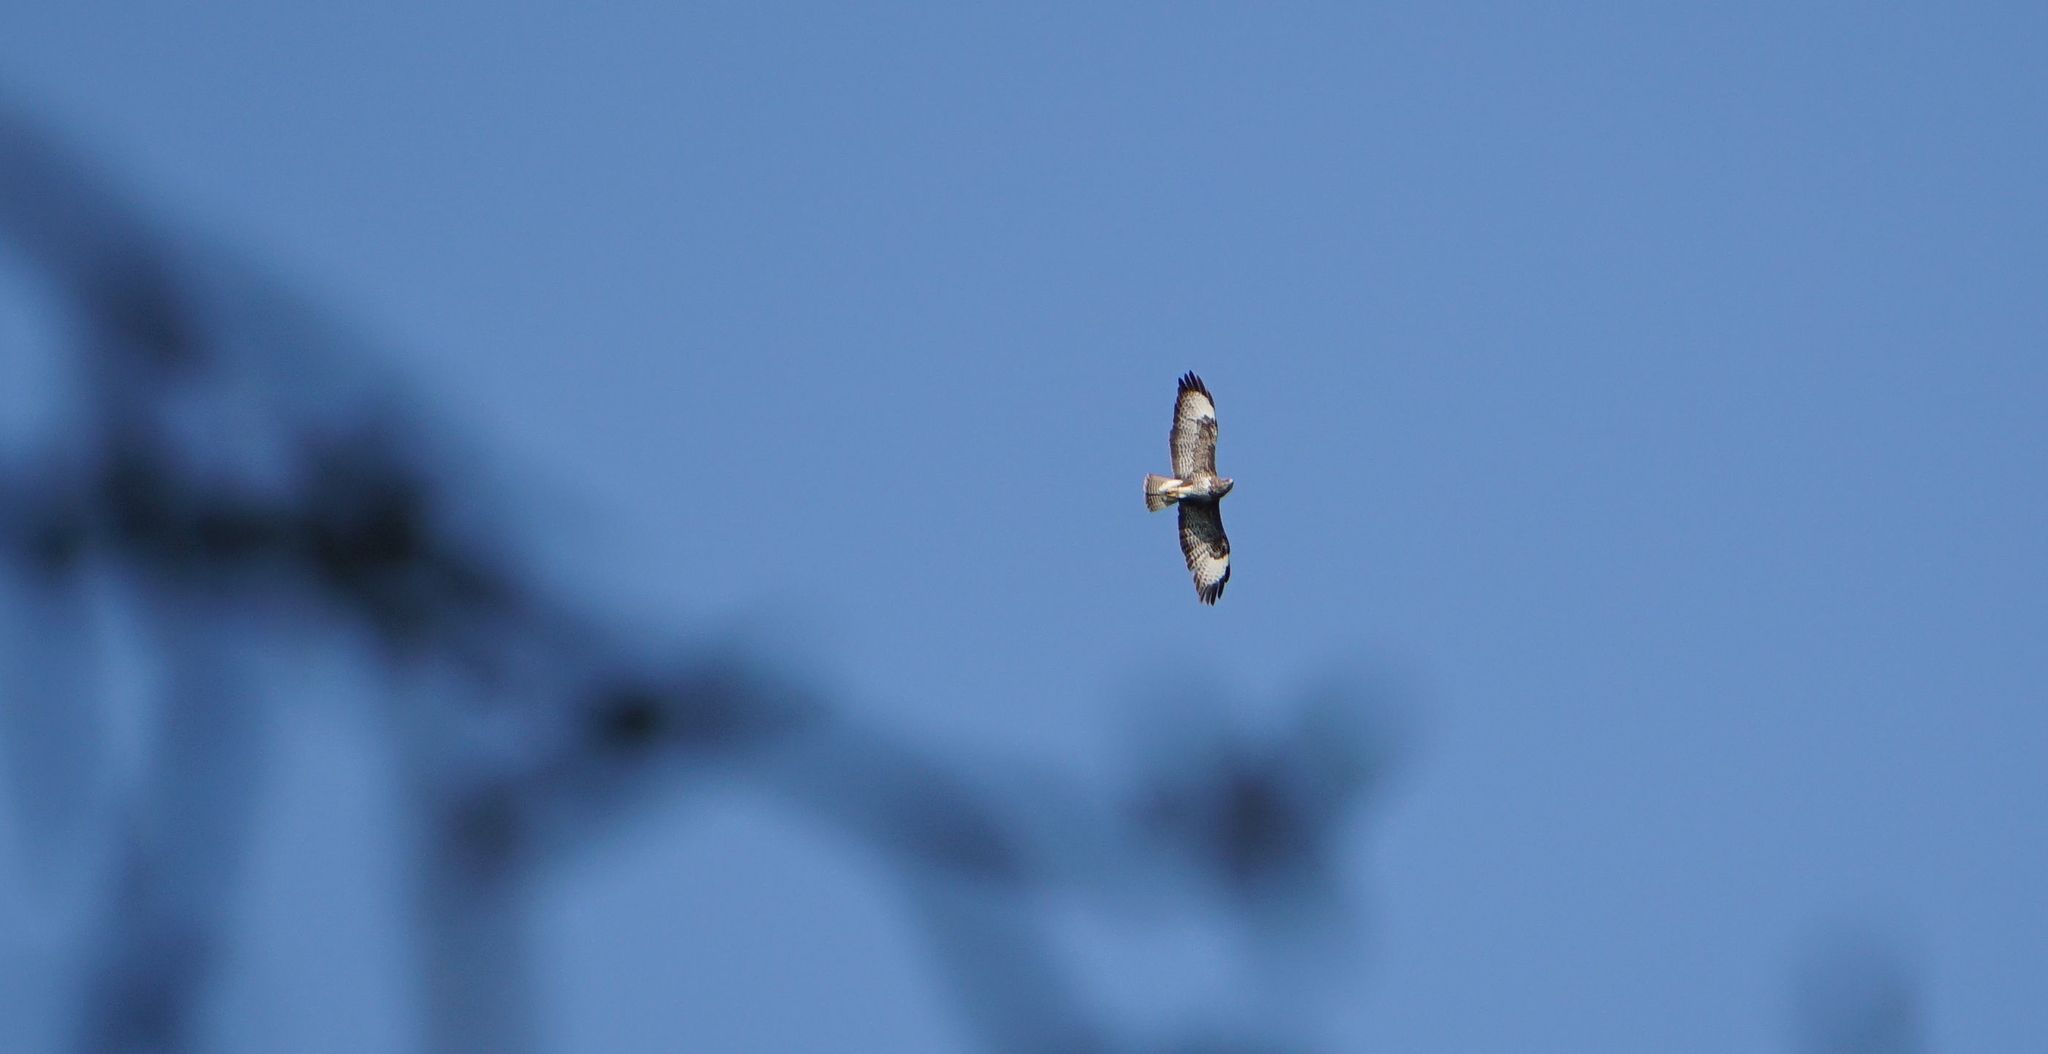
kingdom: Animalia
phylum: Chordata
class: Aves
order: Accipitriformes
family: Accipitridae
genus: Buteo
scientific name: Buteo buteo
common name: Common buzzard
